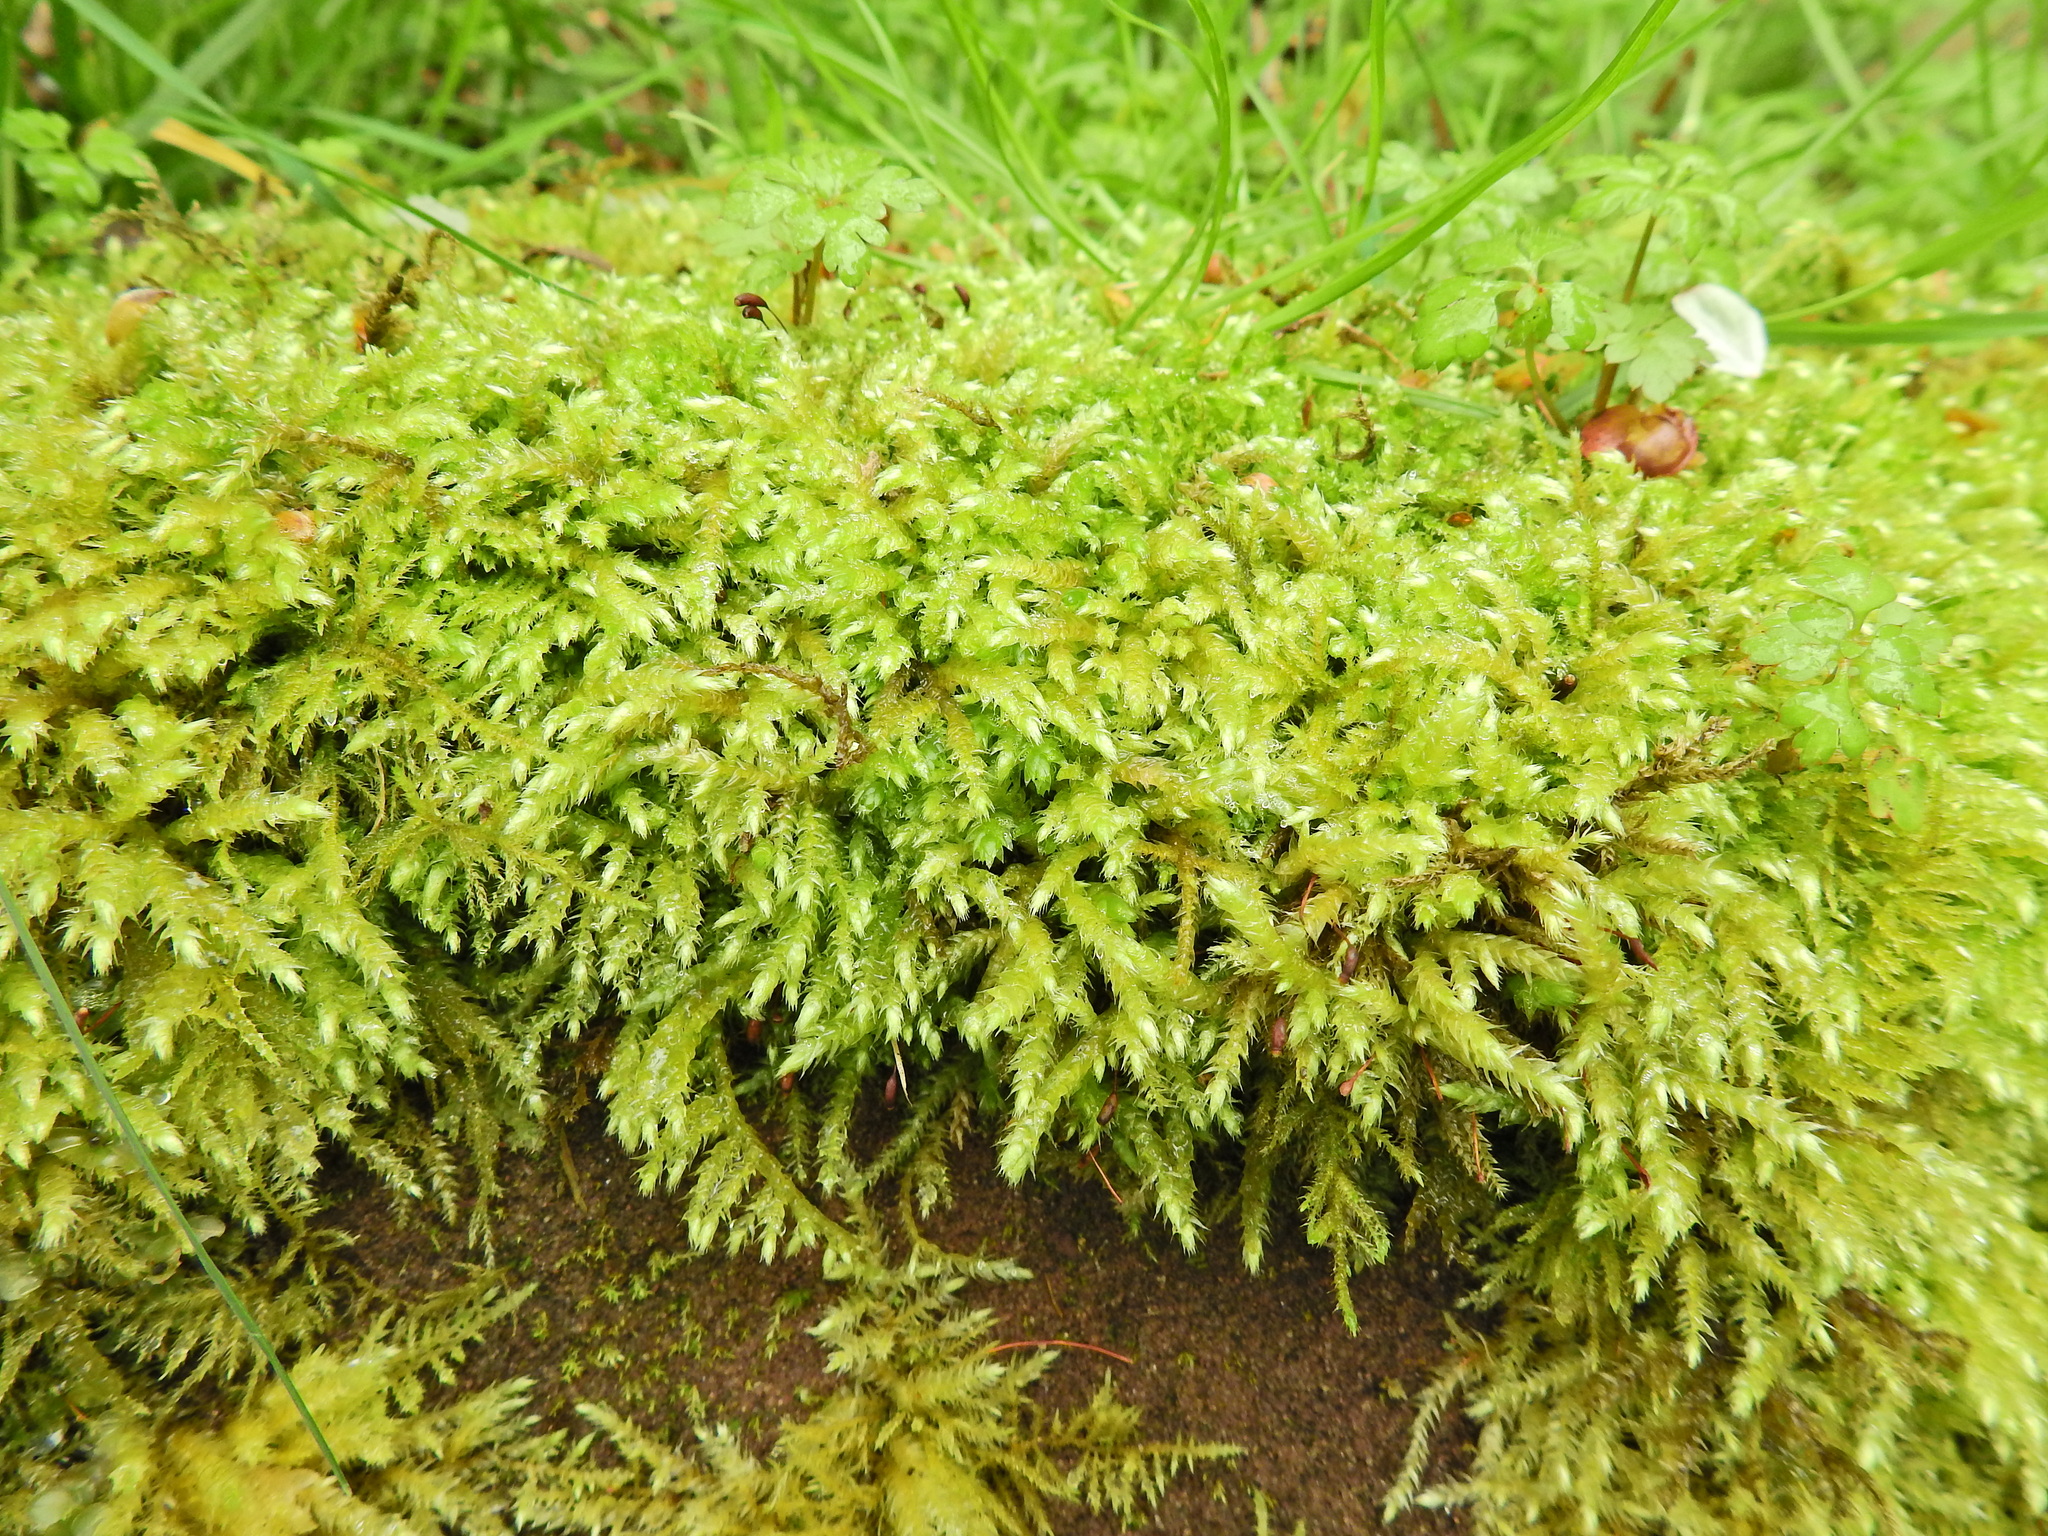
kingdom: Plantae
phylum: Bryophyta
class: Bryopsida
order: Hypnales
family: Brachytheciaceae
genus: Brachythecium
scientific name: Brachythecium rutabulum
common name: Rough-stalked feather-moss
